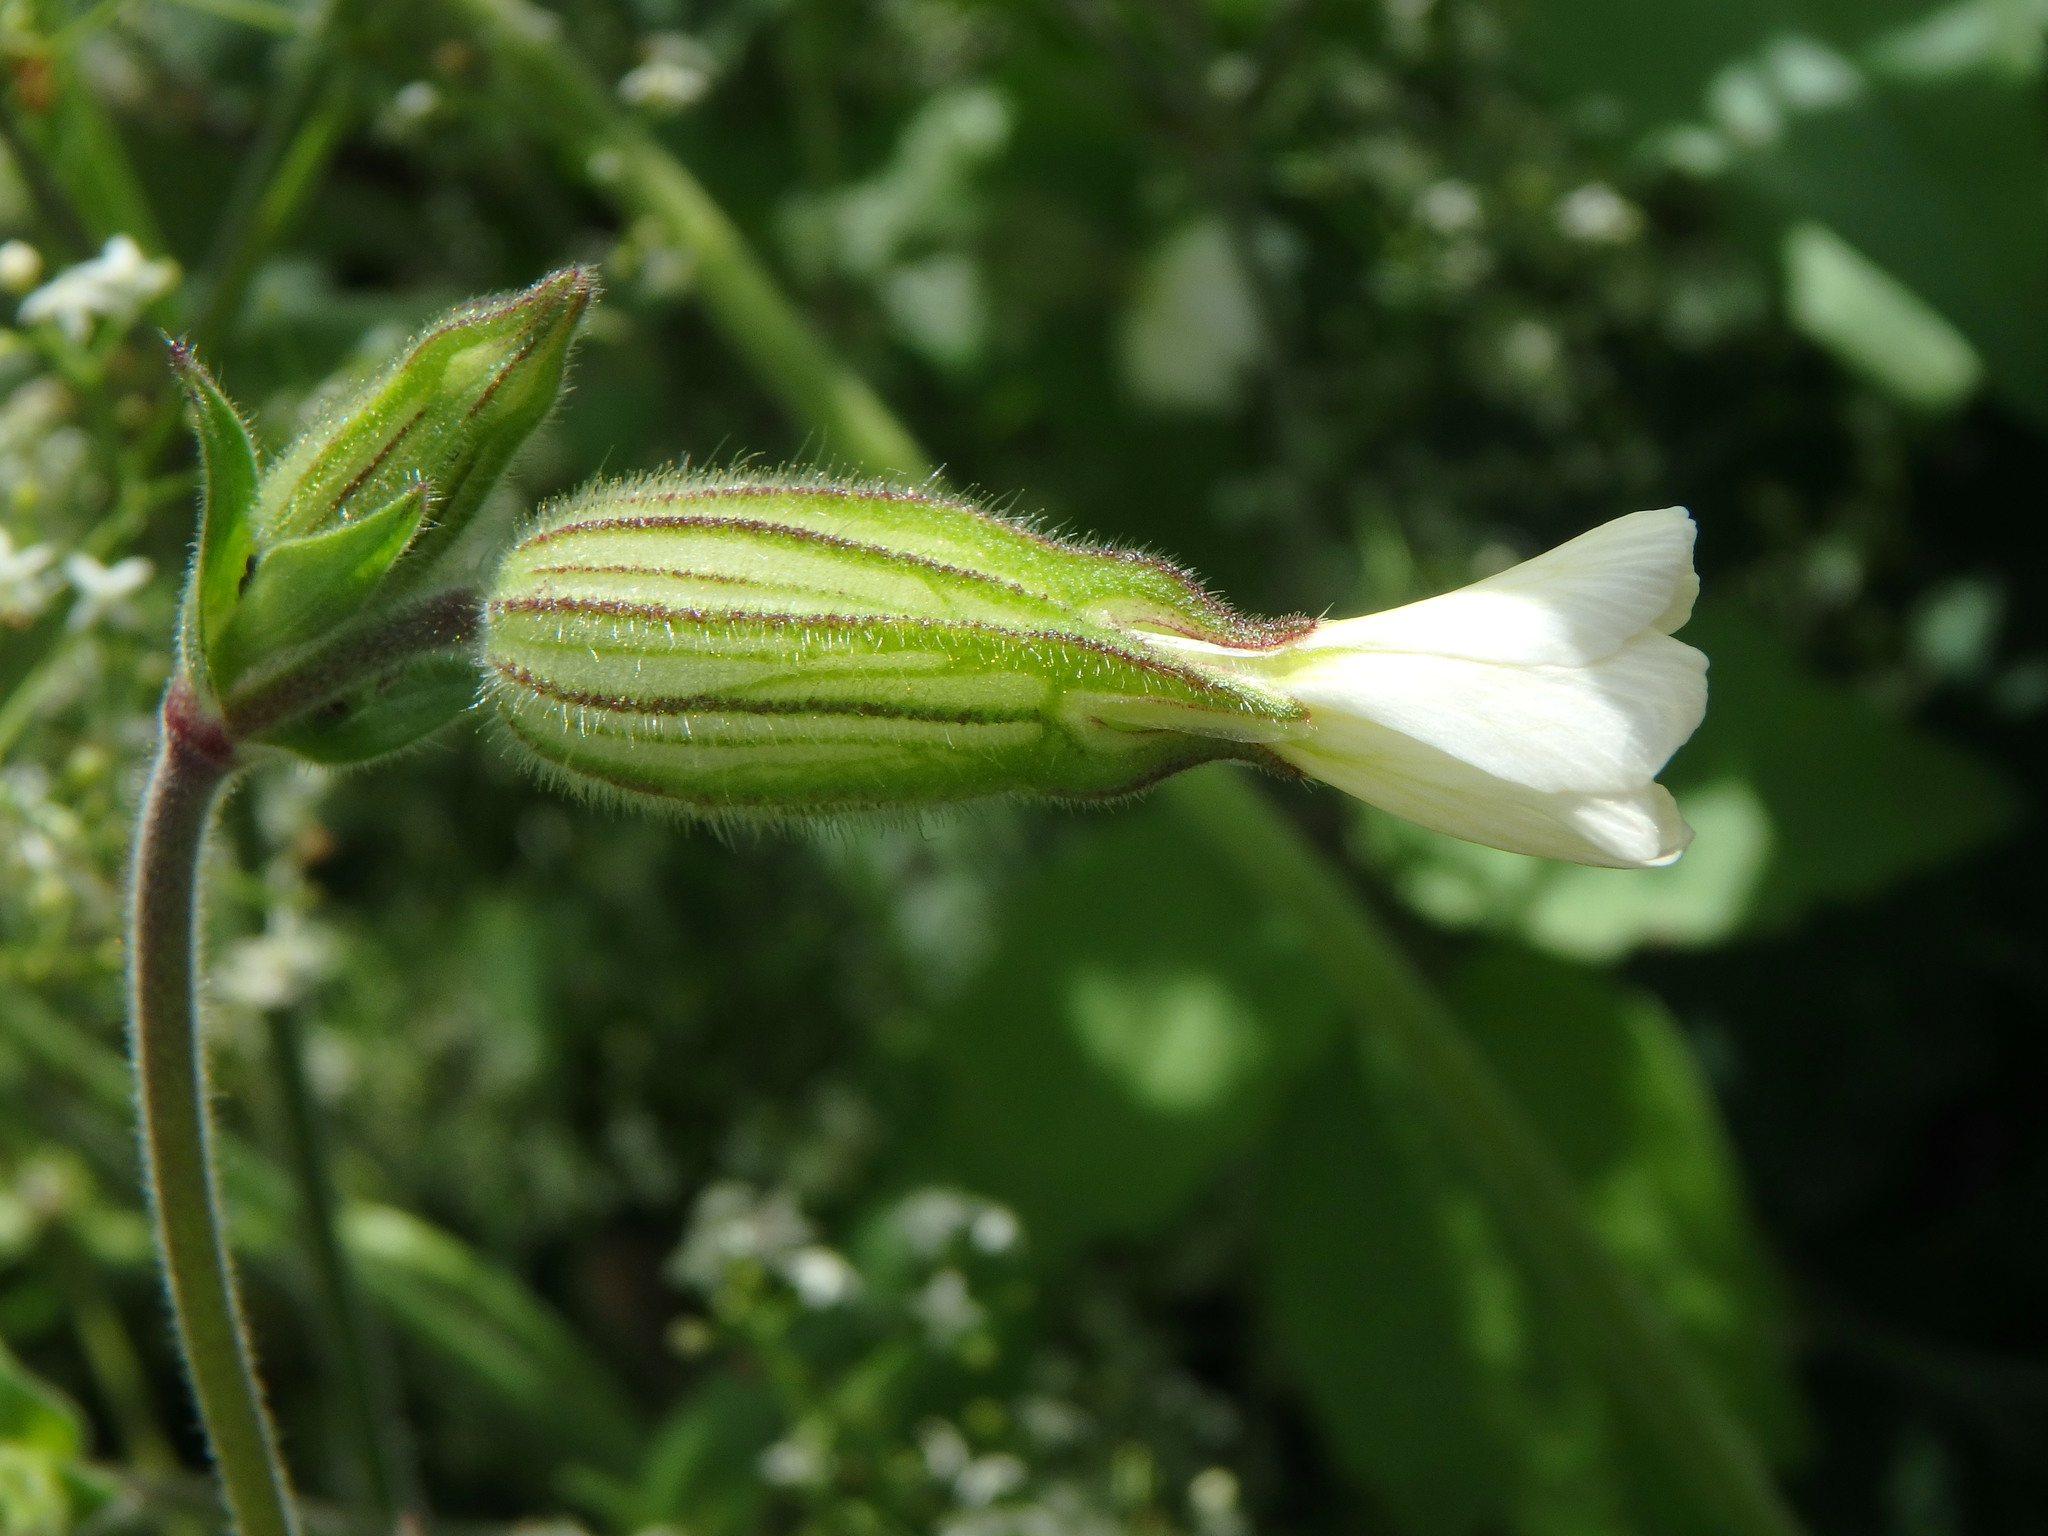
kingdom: Plantae
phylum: Tracheophyta
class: Magnoliopsida
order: Caryophyllales
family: Caryophyllaceae
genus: Silene
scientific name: Silene latifolia
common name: White campion
